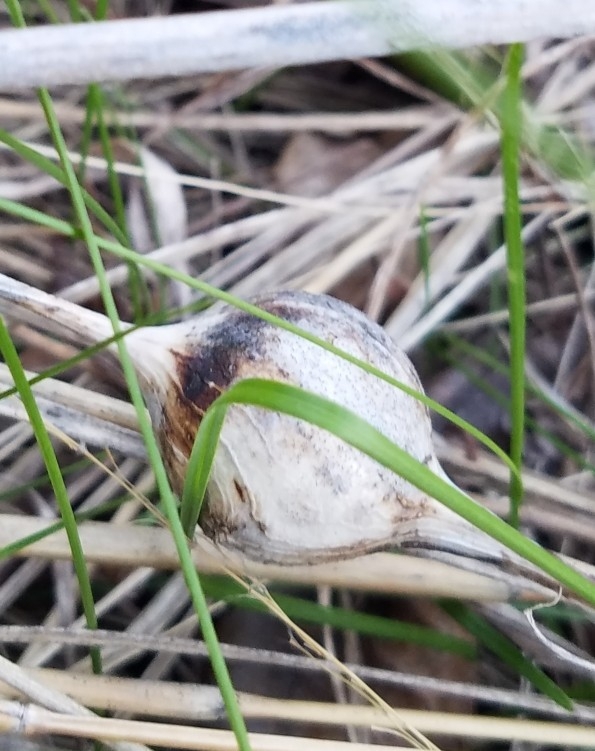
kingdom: Animalia
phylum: Arthropoda
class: Insecta
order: Diptera
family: Tephritidae
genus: Eurosta
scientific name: Eurosta solidaginis
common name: Goldenrod gall fly
